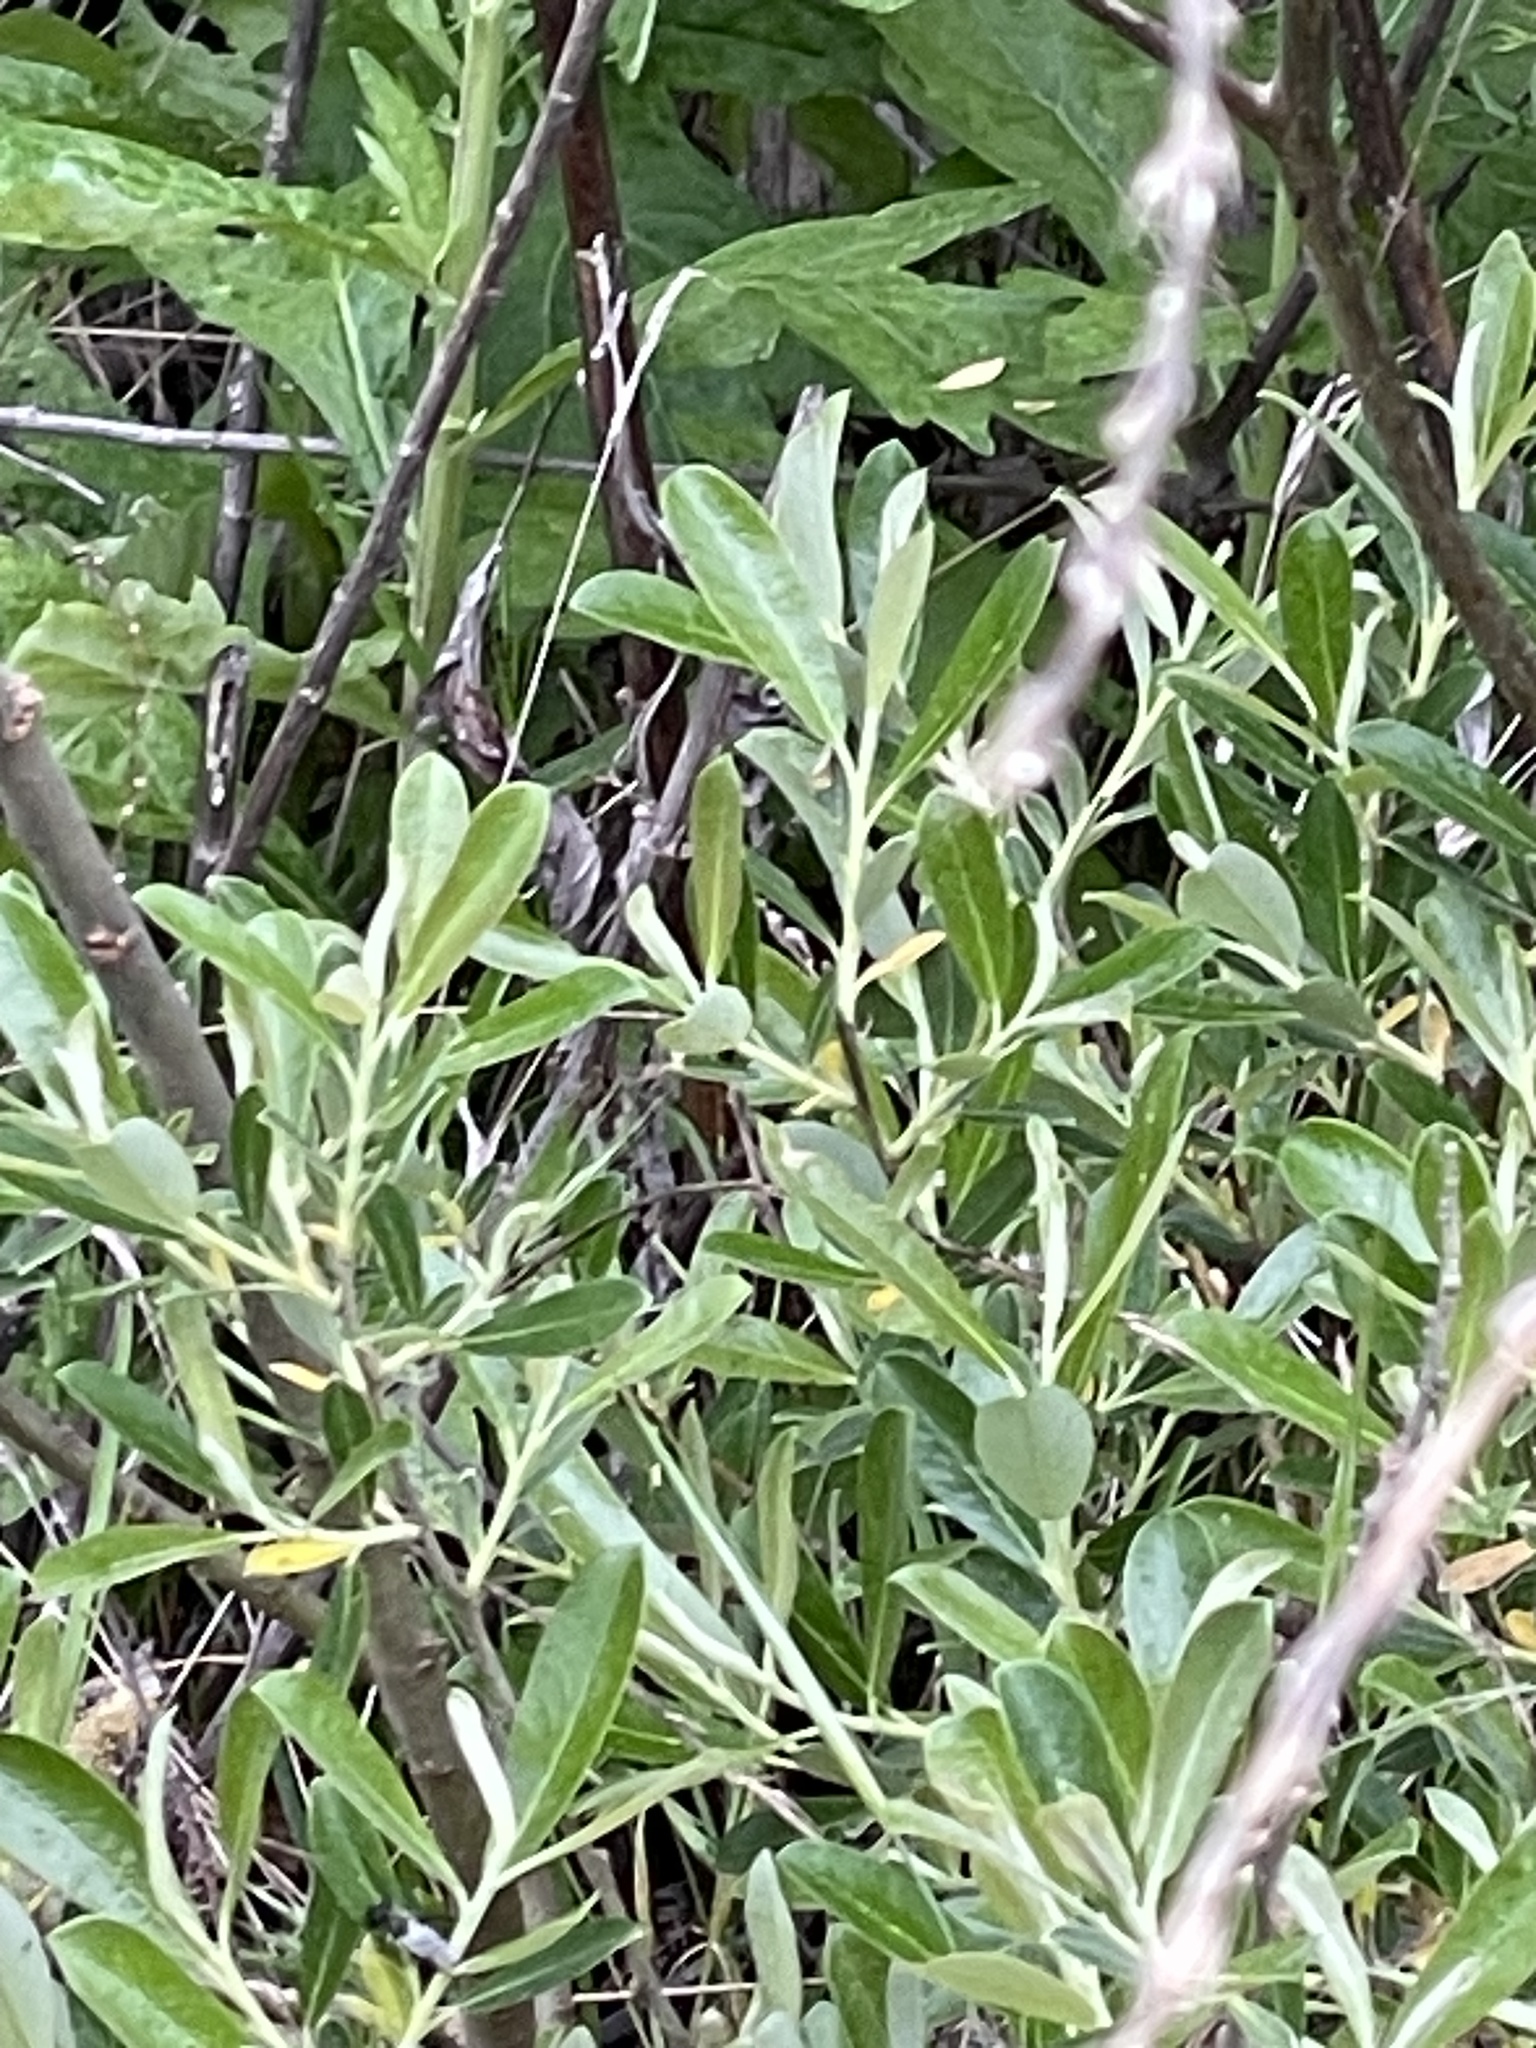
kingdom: Plantae
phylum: Tracheophyta
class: Magnoliopsida
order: Malpighiales
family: Salicaceae
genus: Salix
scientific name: Salix lasiolepis
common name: Arroyo willow
